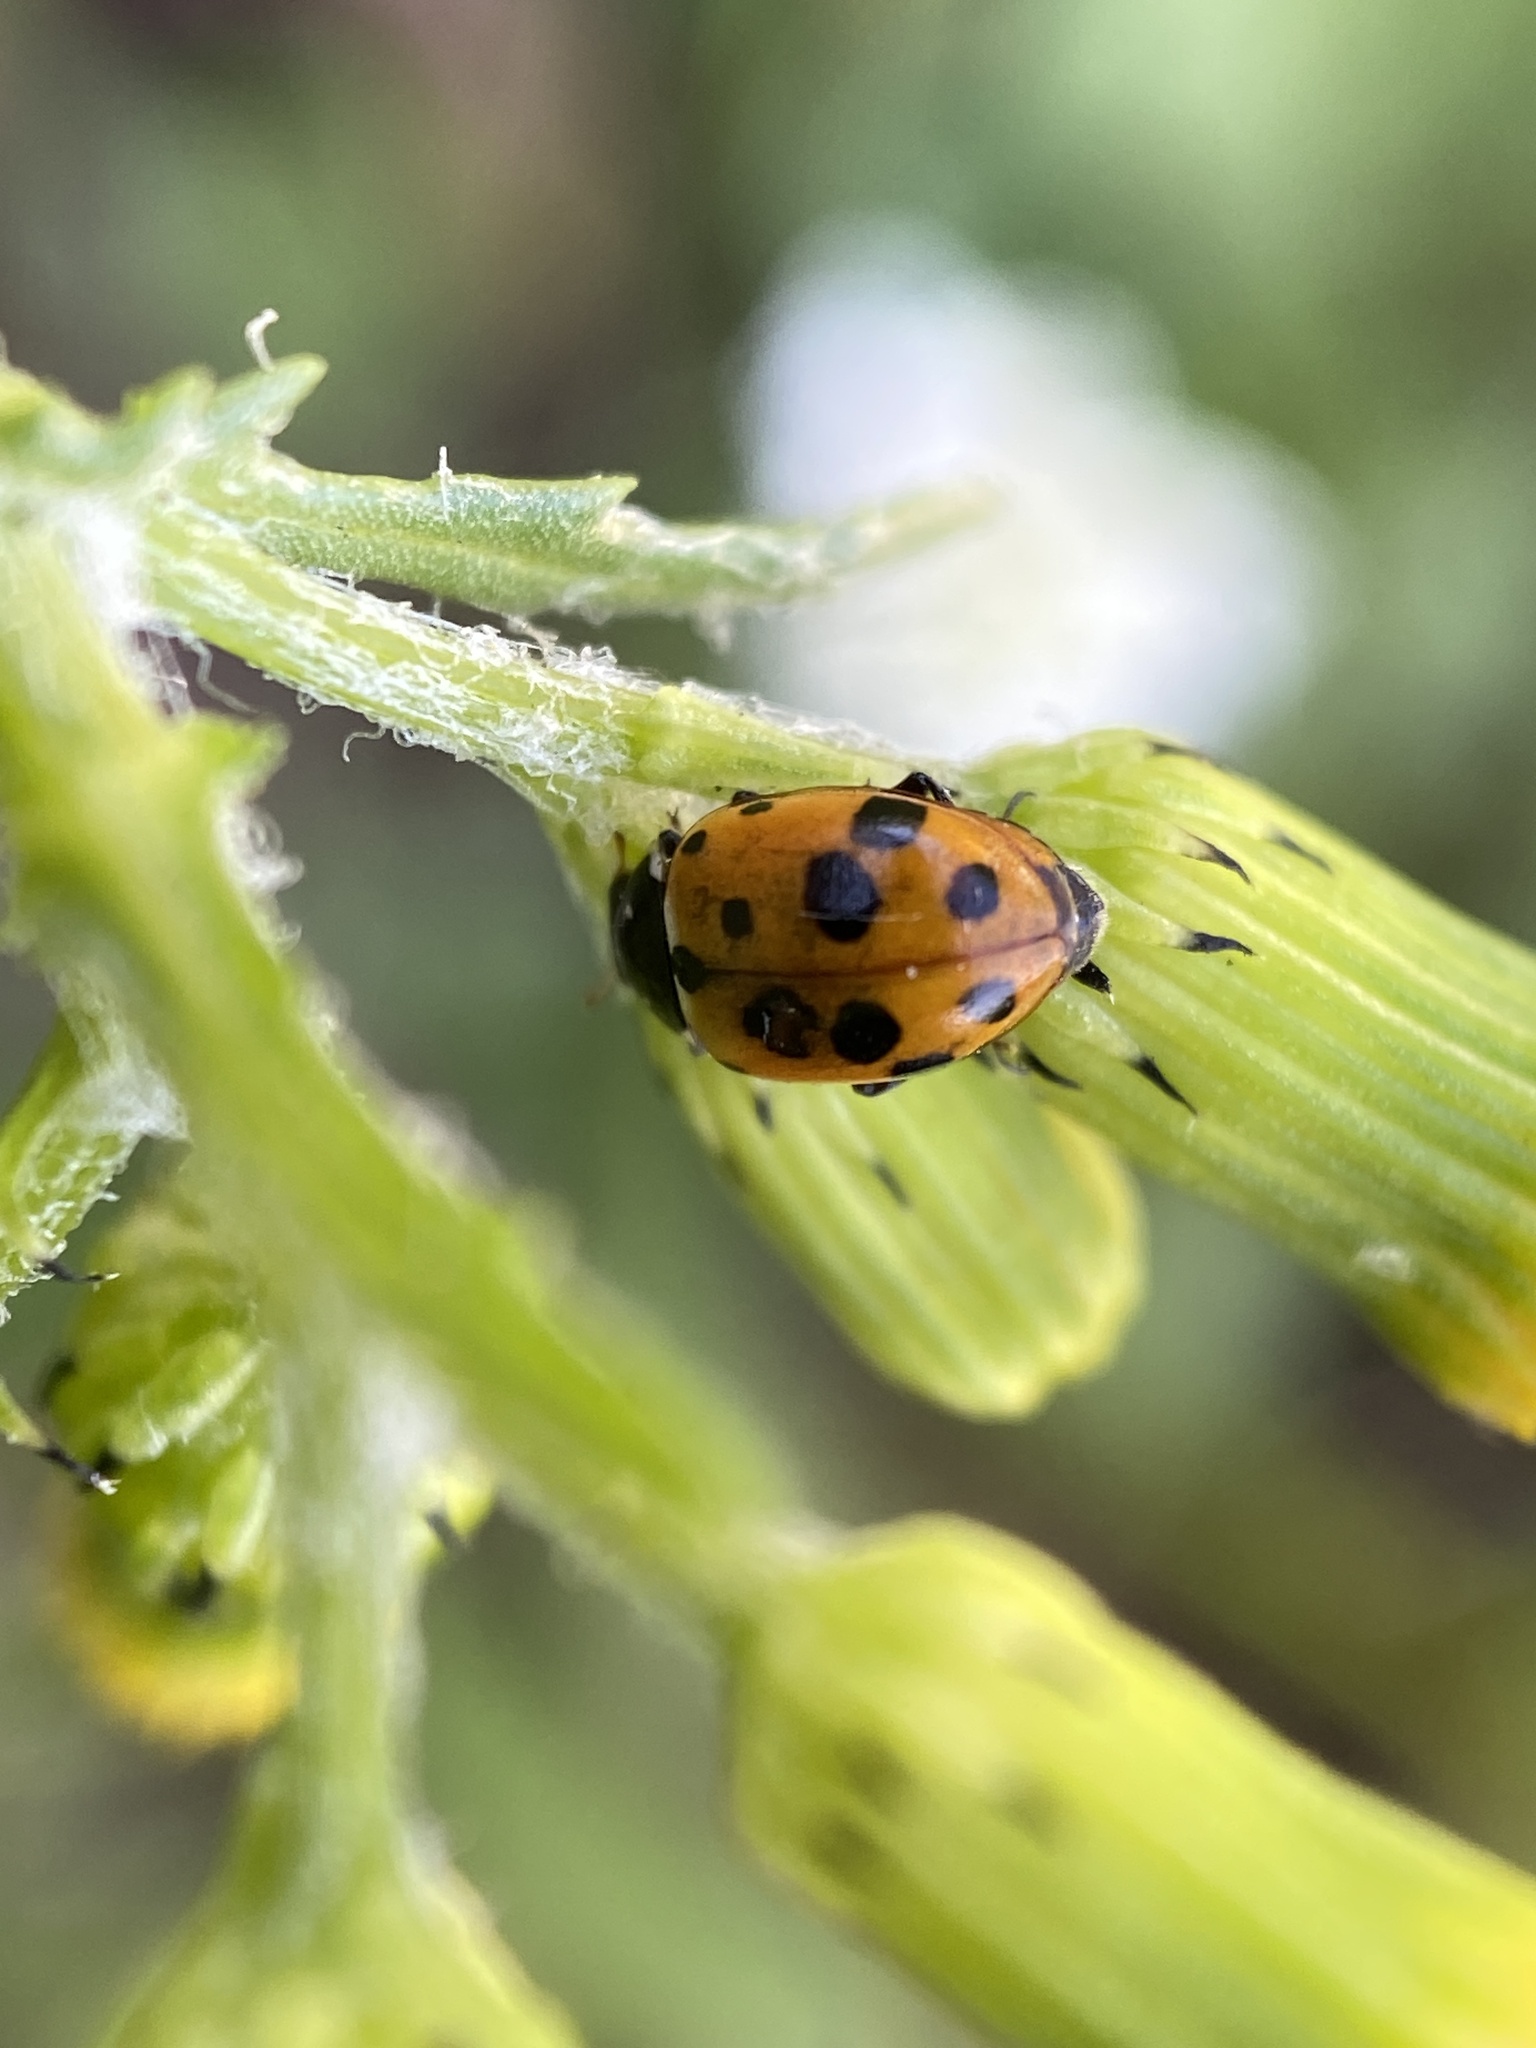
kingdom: Animalia
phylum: Arthropoda
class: Insecta
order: Coleoptera
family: Coccinellidae
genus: Hippodamia
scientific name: Hippodamia variegata
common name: Ladybird beetle
